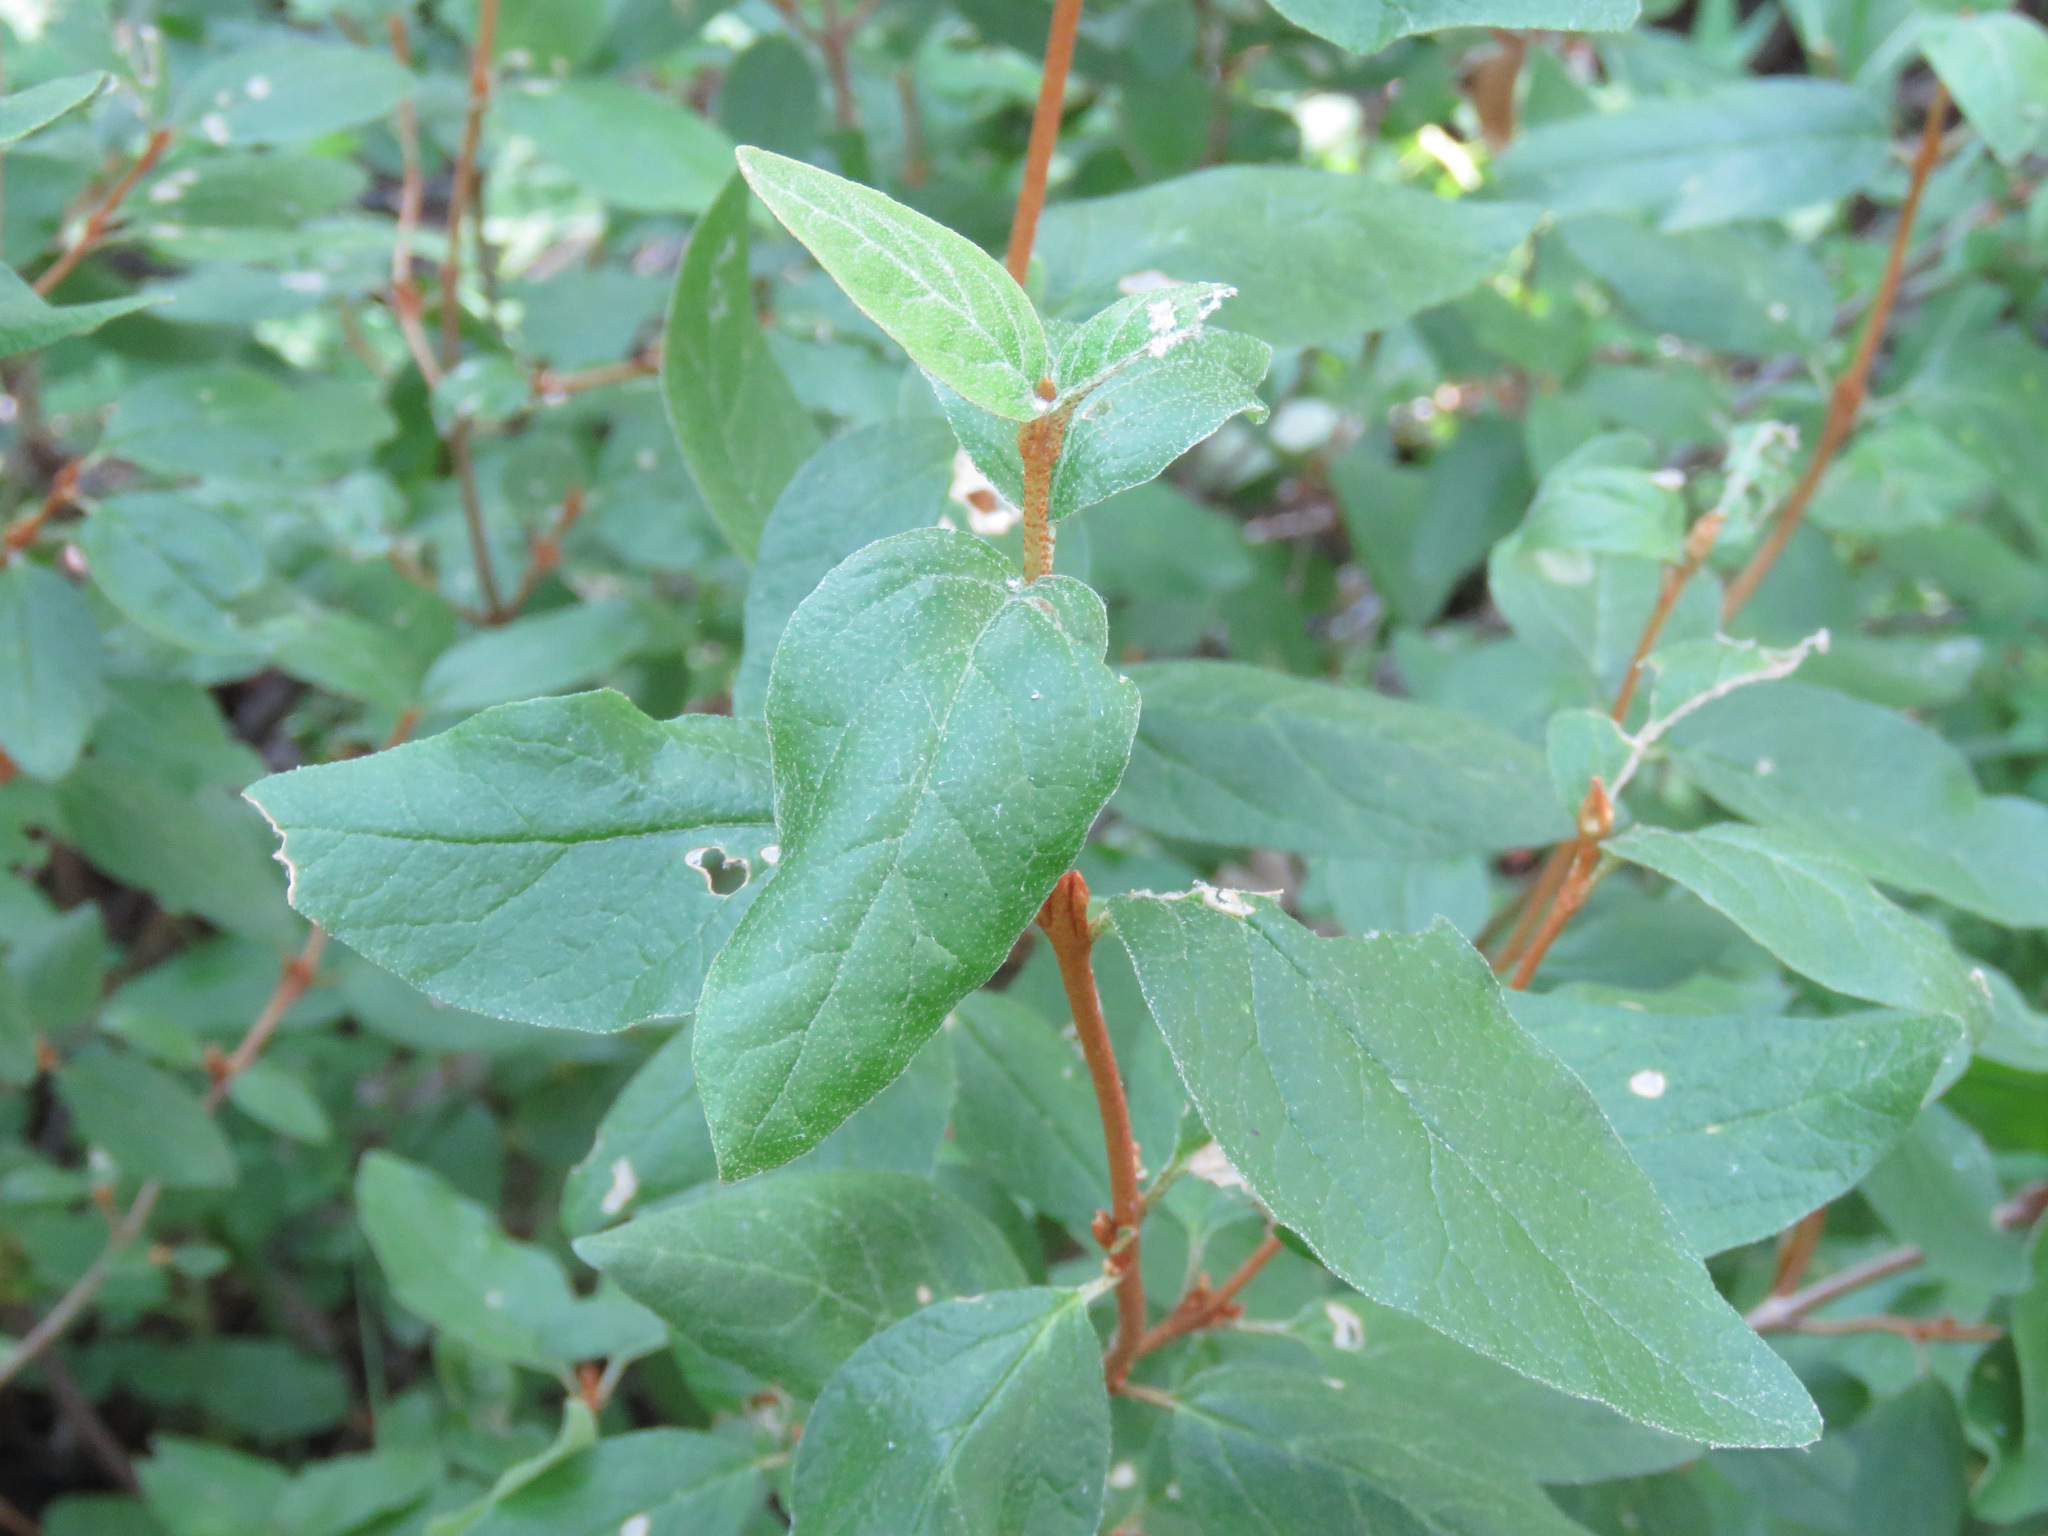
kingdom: Plantae
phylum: Tracheophyta
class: Magnoliopsida
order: Rosales
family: Elaeagnaceae
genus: Shepherdia
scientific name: Shepherdia canadensis
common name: Soapberry
